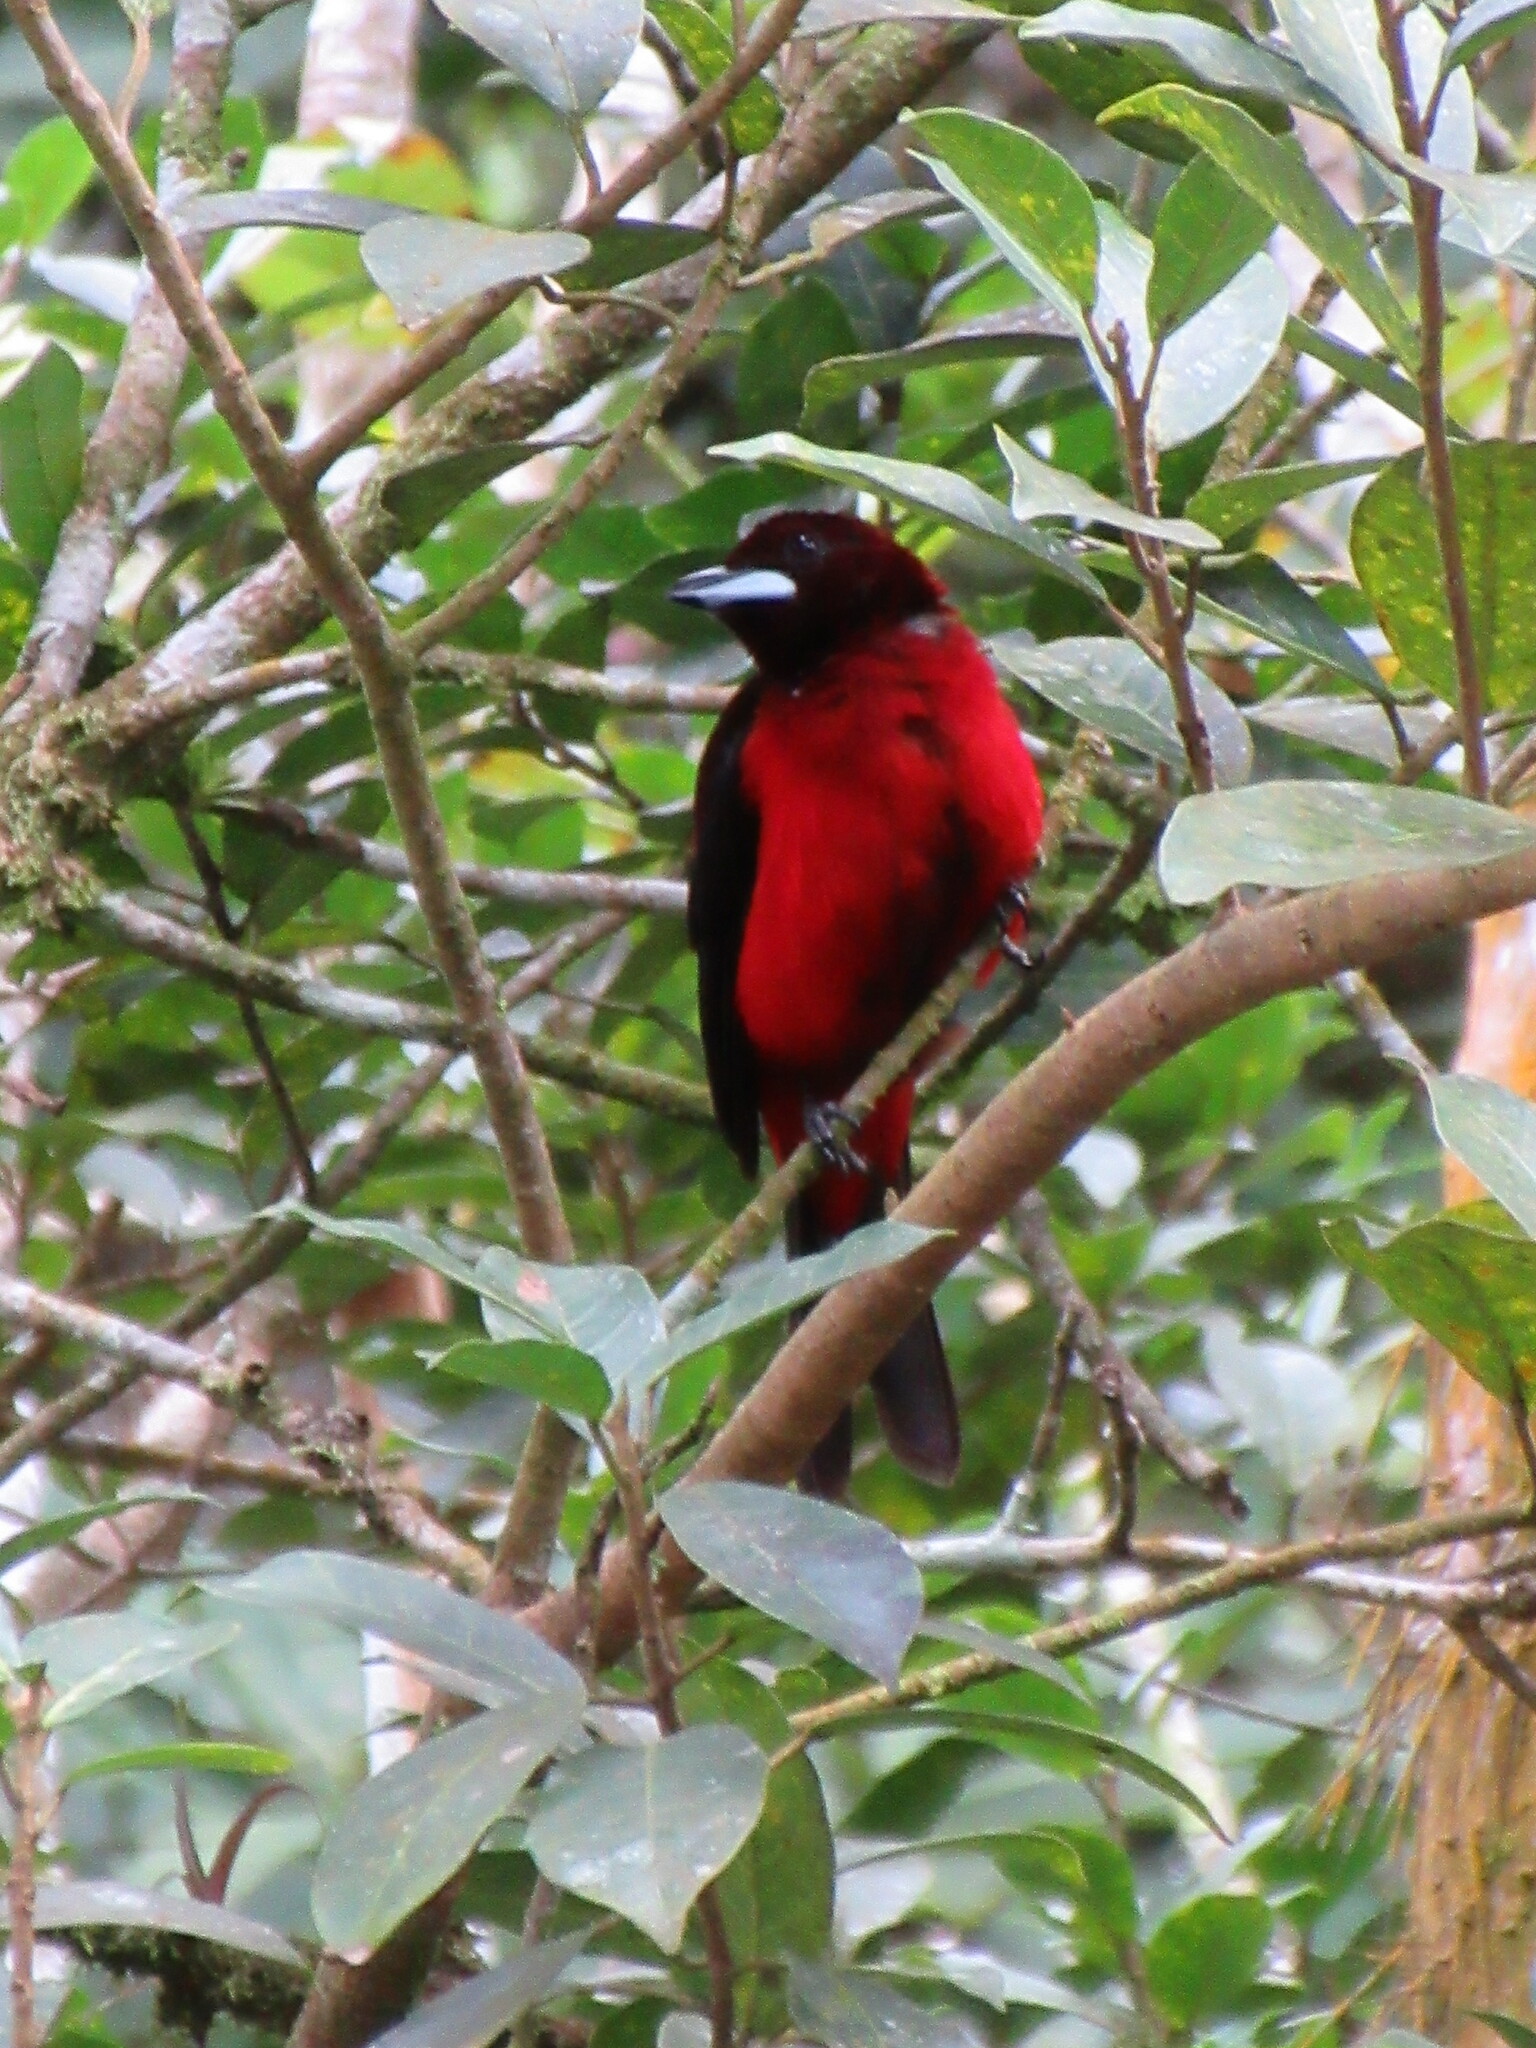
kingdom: Animalia
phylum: Chordata
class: Aves
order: Passeriformes
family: Thraupidae
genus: Ramphocelus
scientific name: Ramphocelus dimidiatus
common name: Crimson-backed tanager
